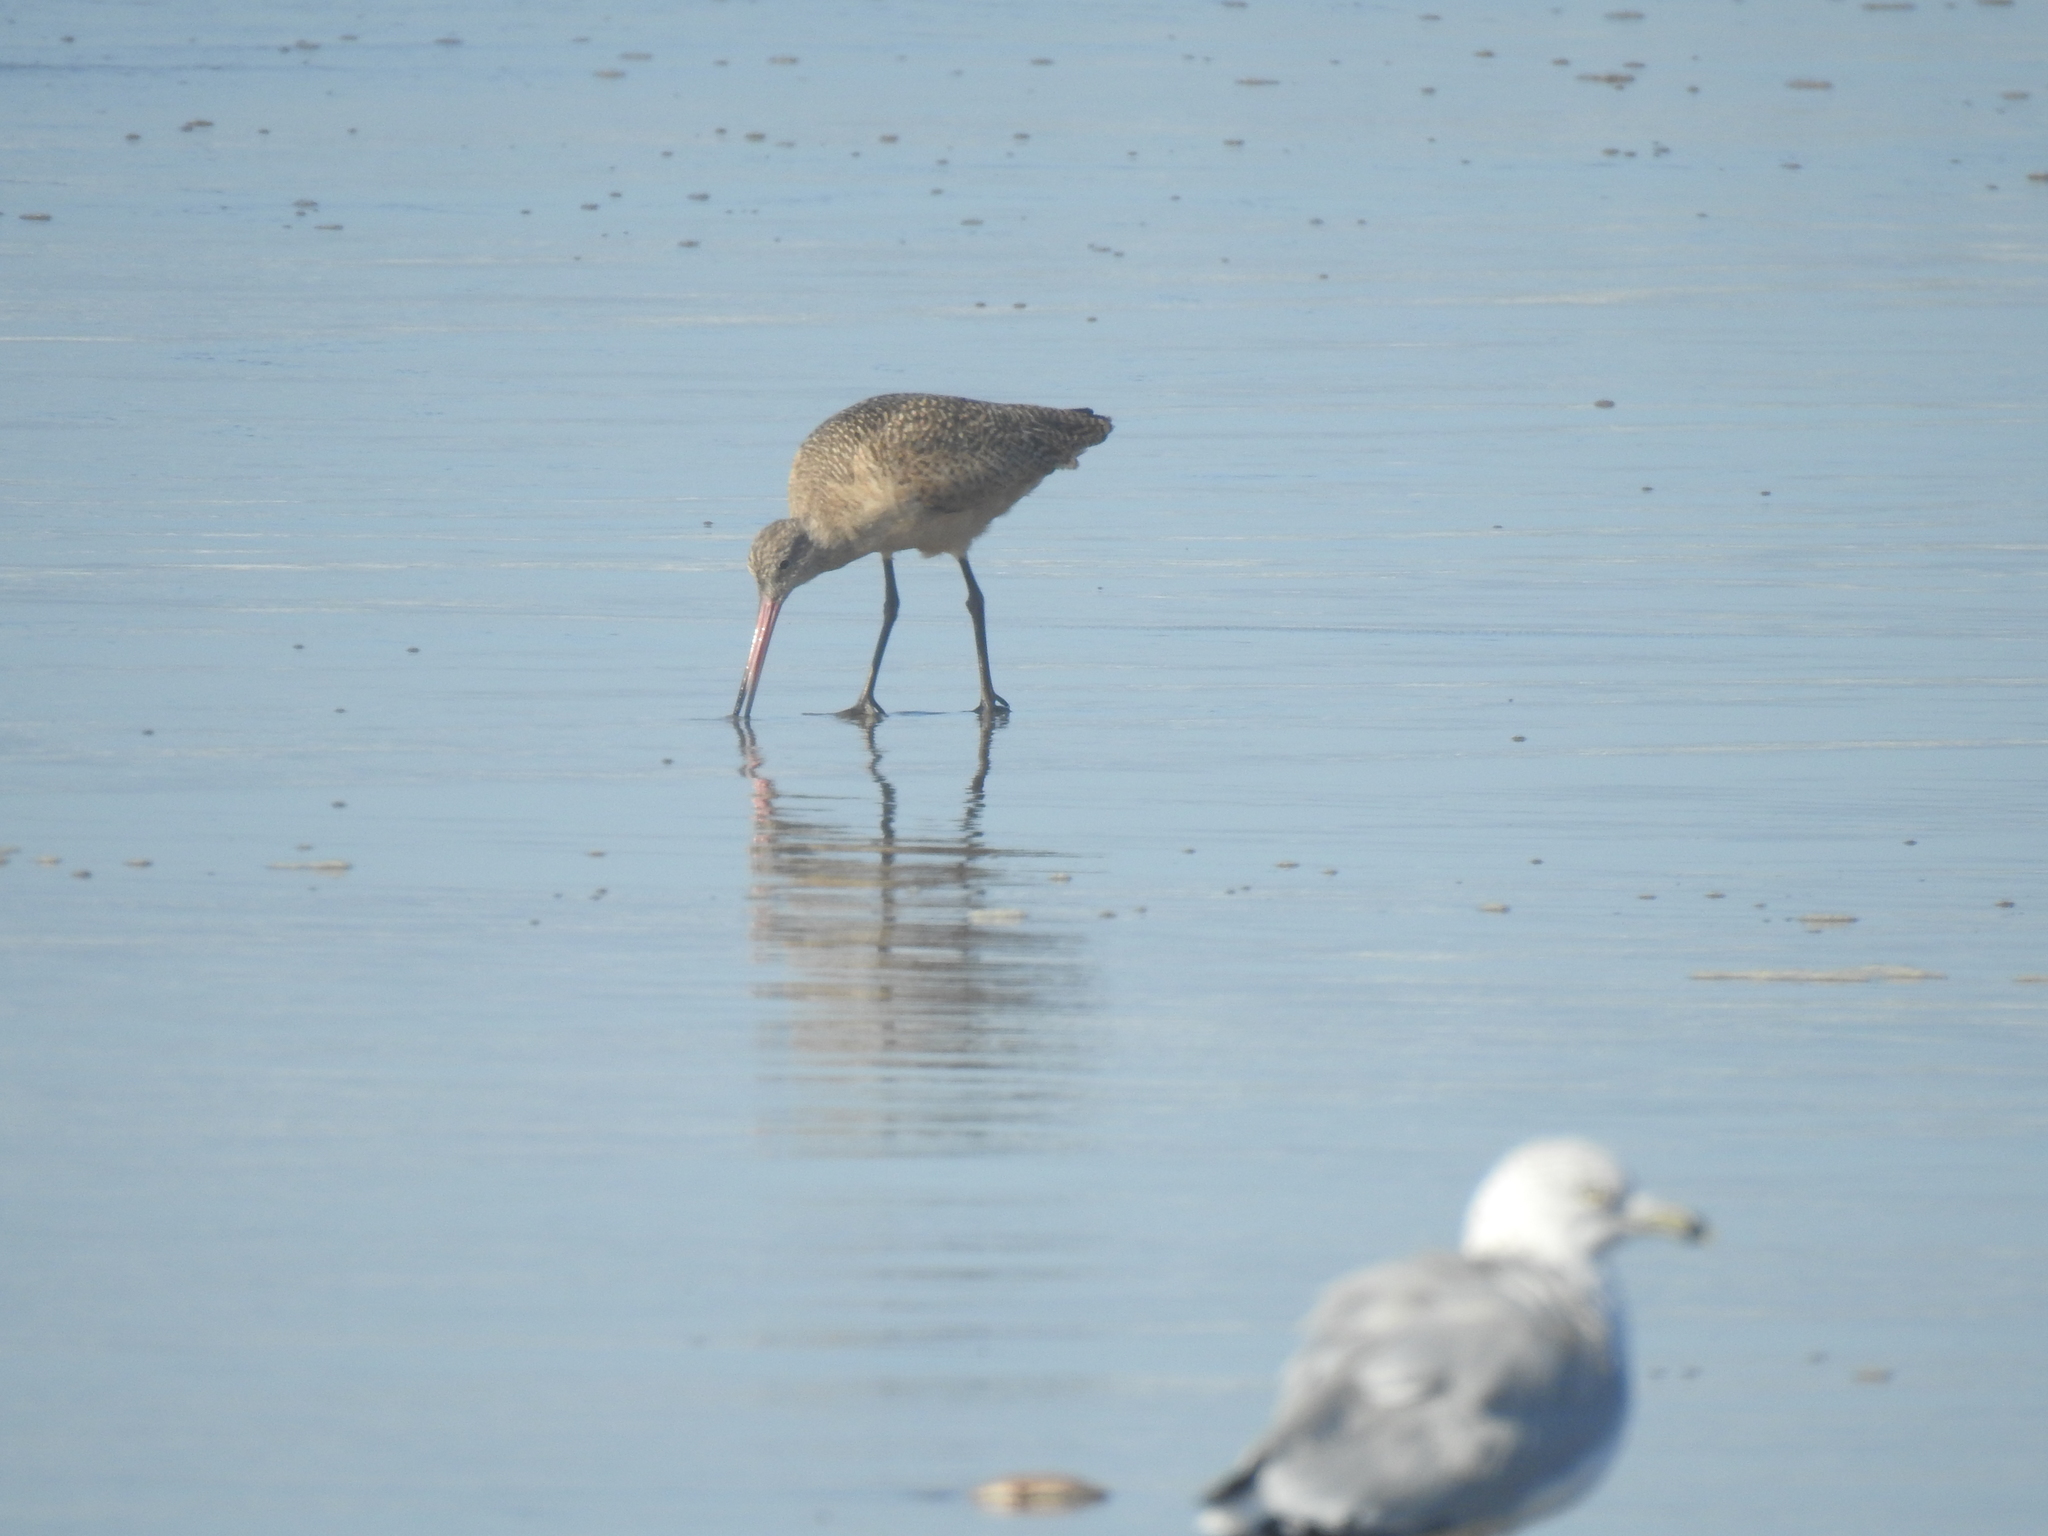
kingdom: Animalia
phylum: Chordata
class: Aves
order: Charadriiformes
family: Scolopacidae
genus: Limosa
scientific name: Limosa fedoa
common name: Marbled godwit
